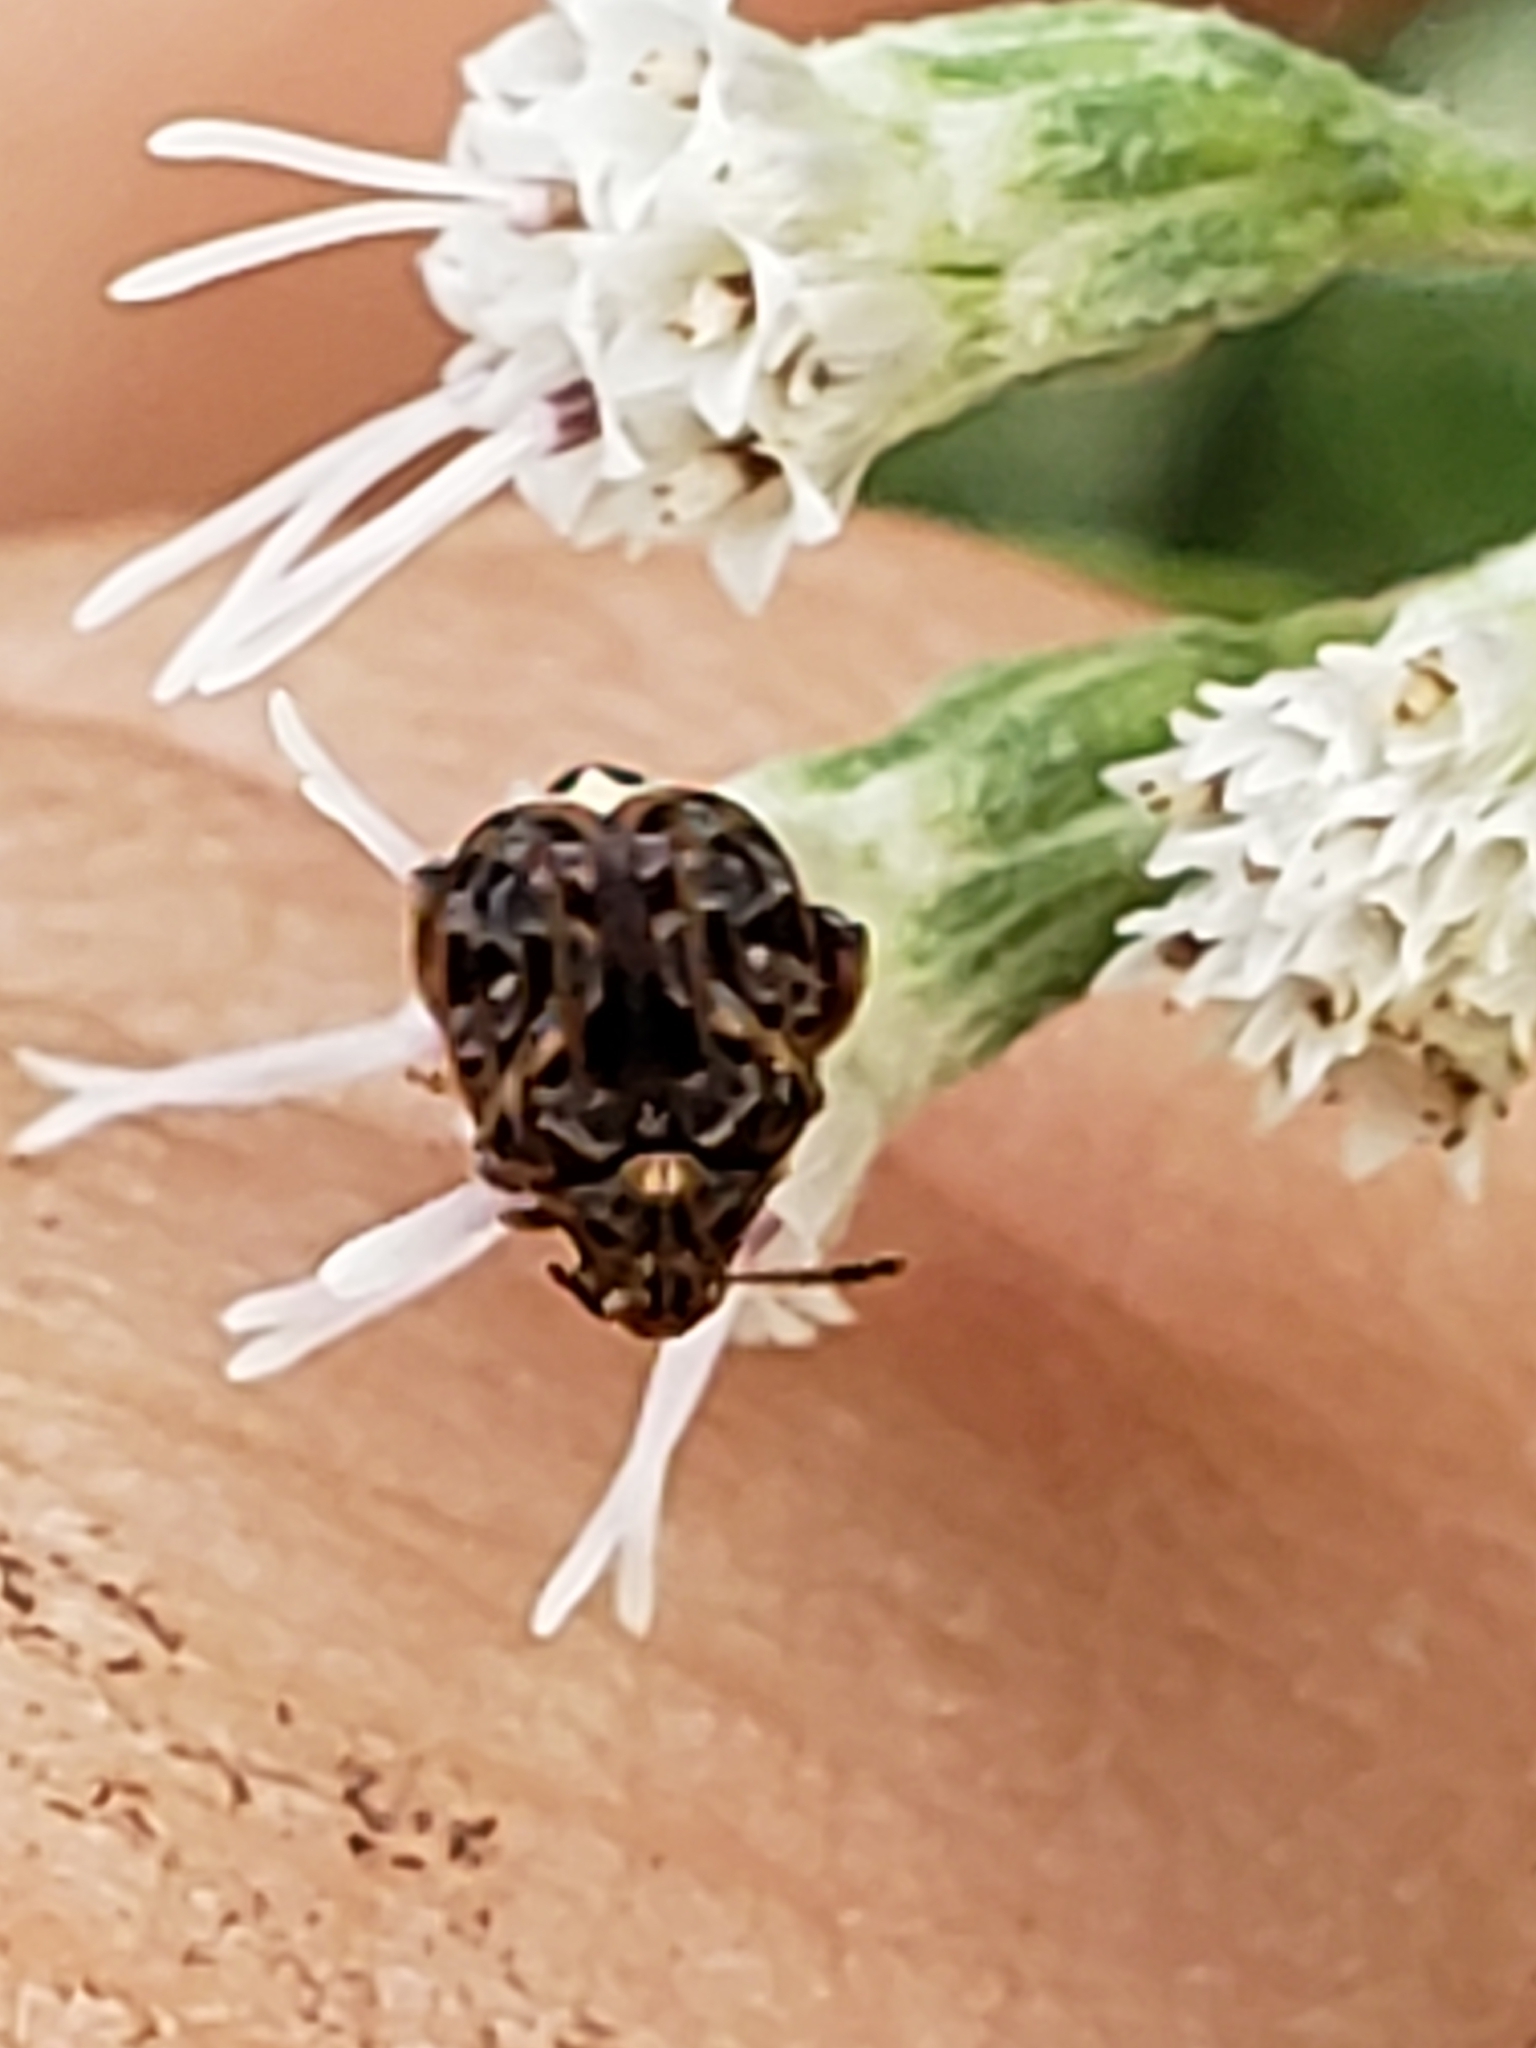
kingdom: Animalia
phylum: Arthropoda
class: Insecta
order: Coleoptera
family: Chrysomelidae
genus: Gibbobruchus
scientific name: Gibbobruchus mimus
